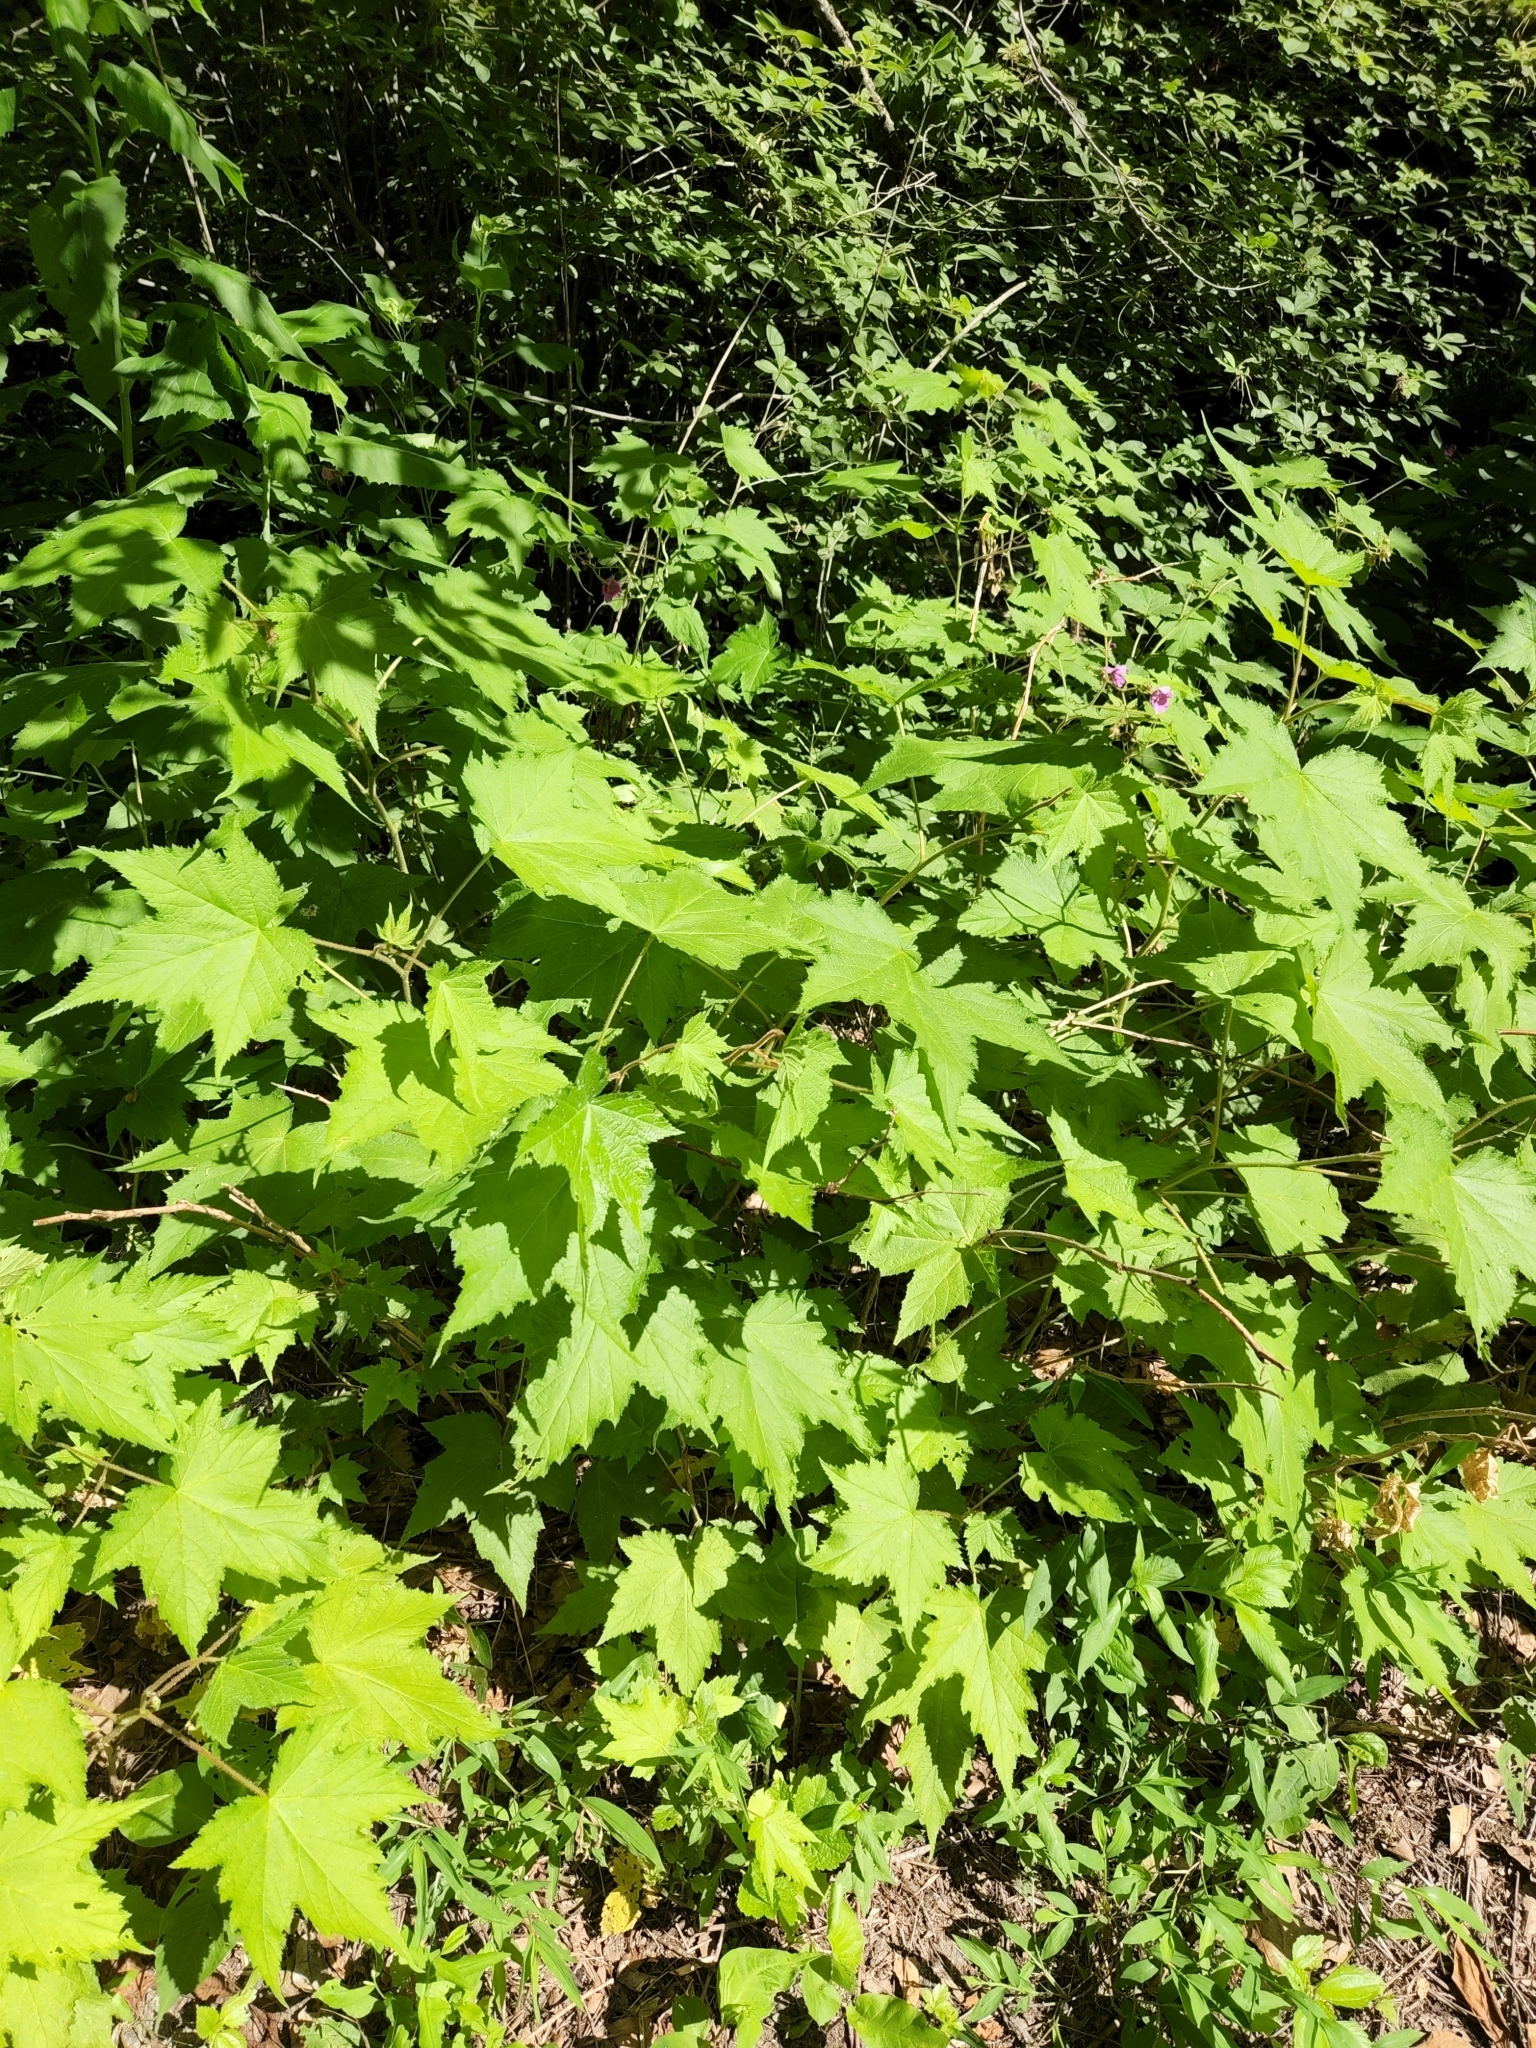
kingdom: Plantae
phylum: Tracheophyta
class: Magnoliopsida
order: Rosales
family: Rosaceae
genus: Rubus
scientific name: Rubus odoratus
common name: Purple-flowered raspberry
